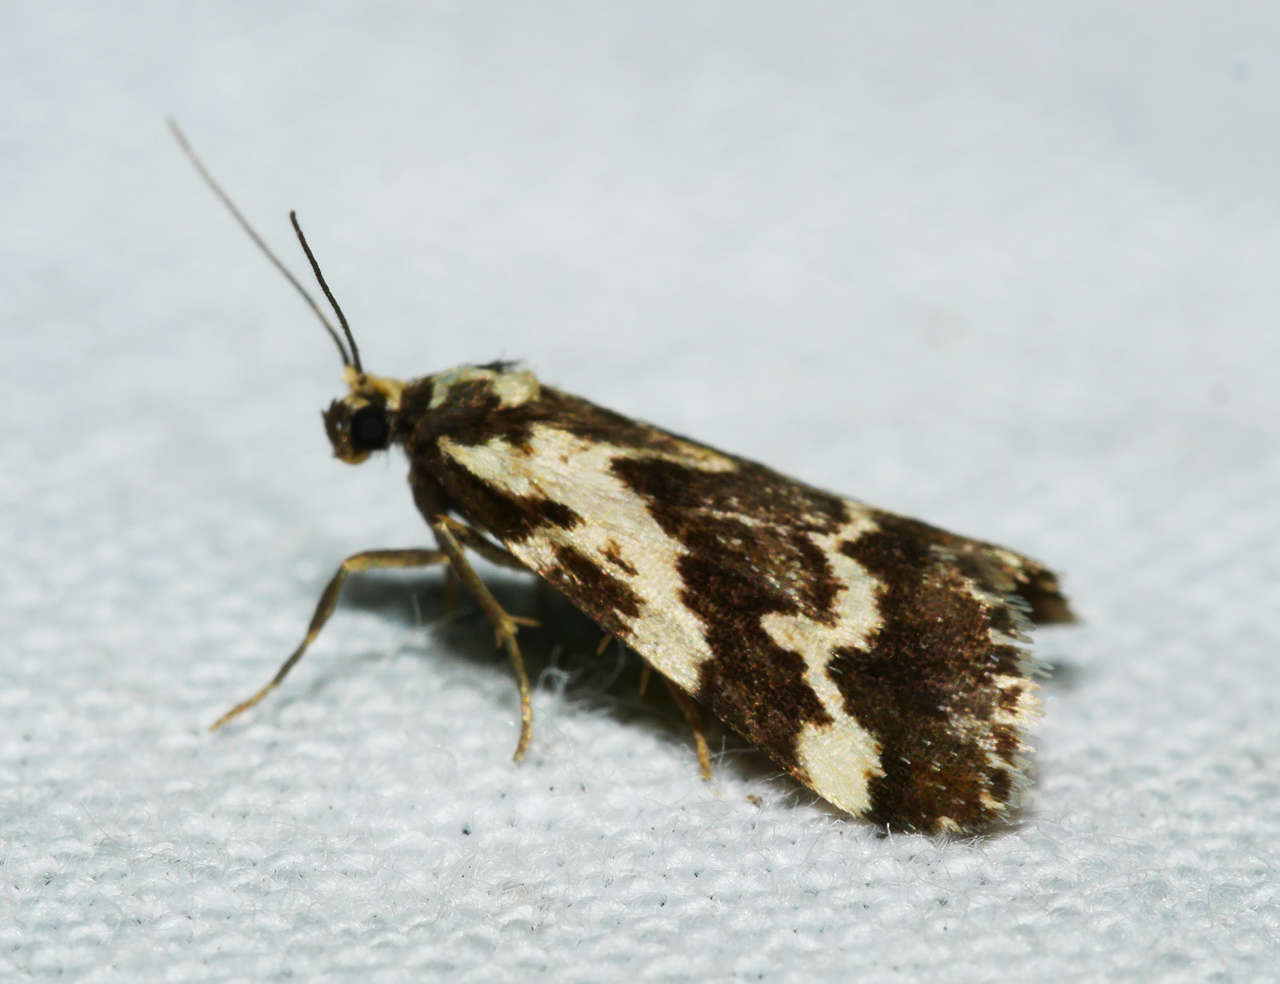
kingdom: Animalia
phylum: Arthropoda
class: Insecta
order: Lepidoptera
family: Erebidae
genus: Damias
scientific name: Damias procrena
